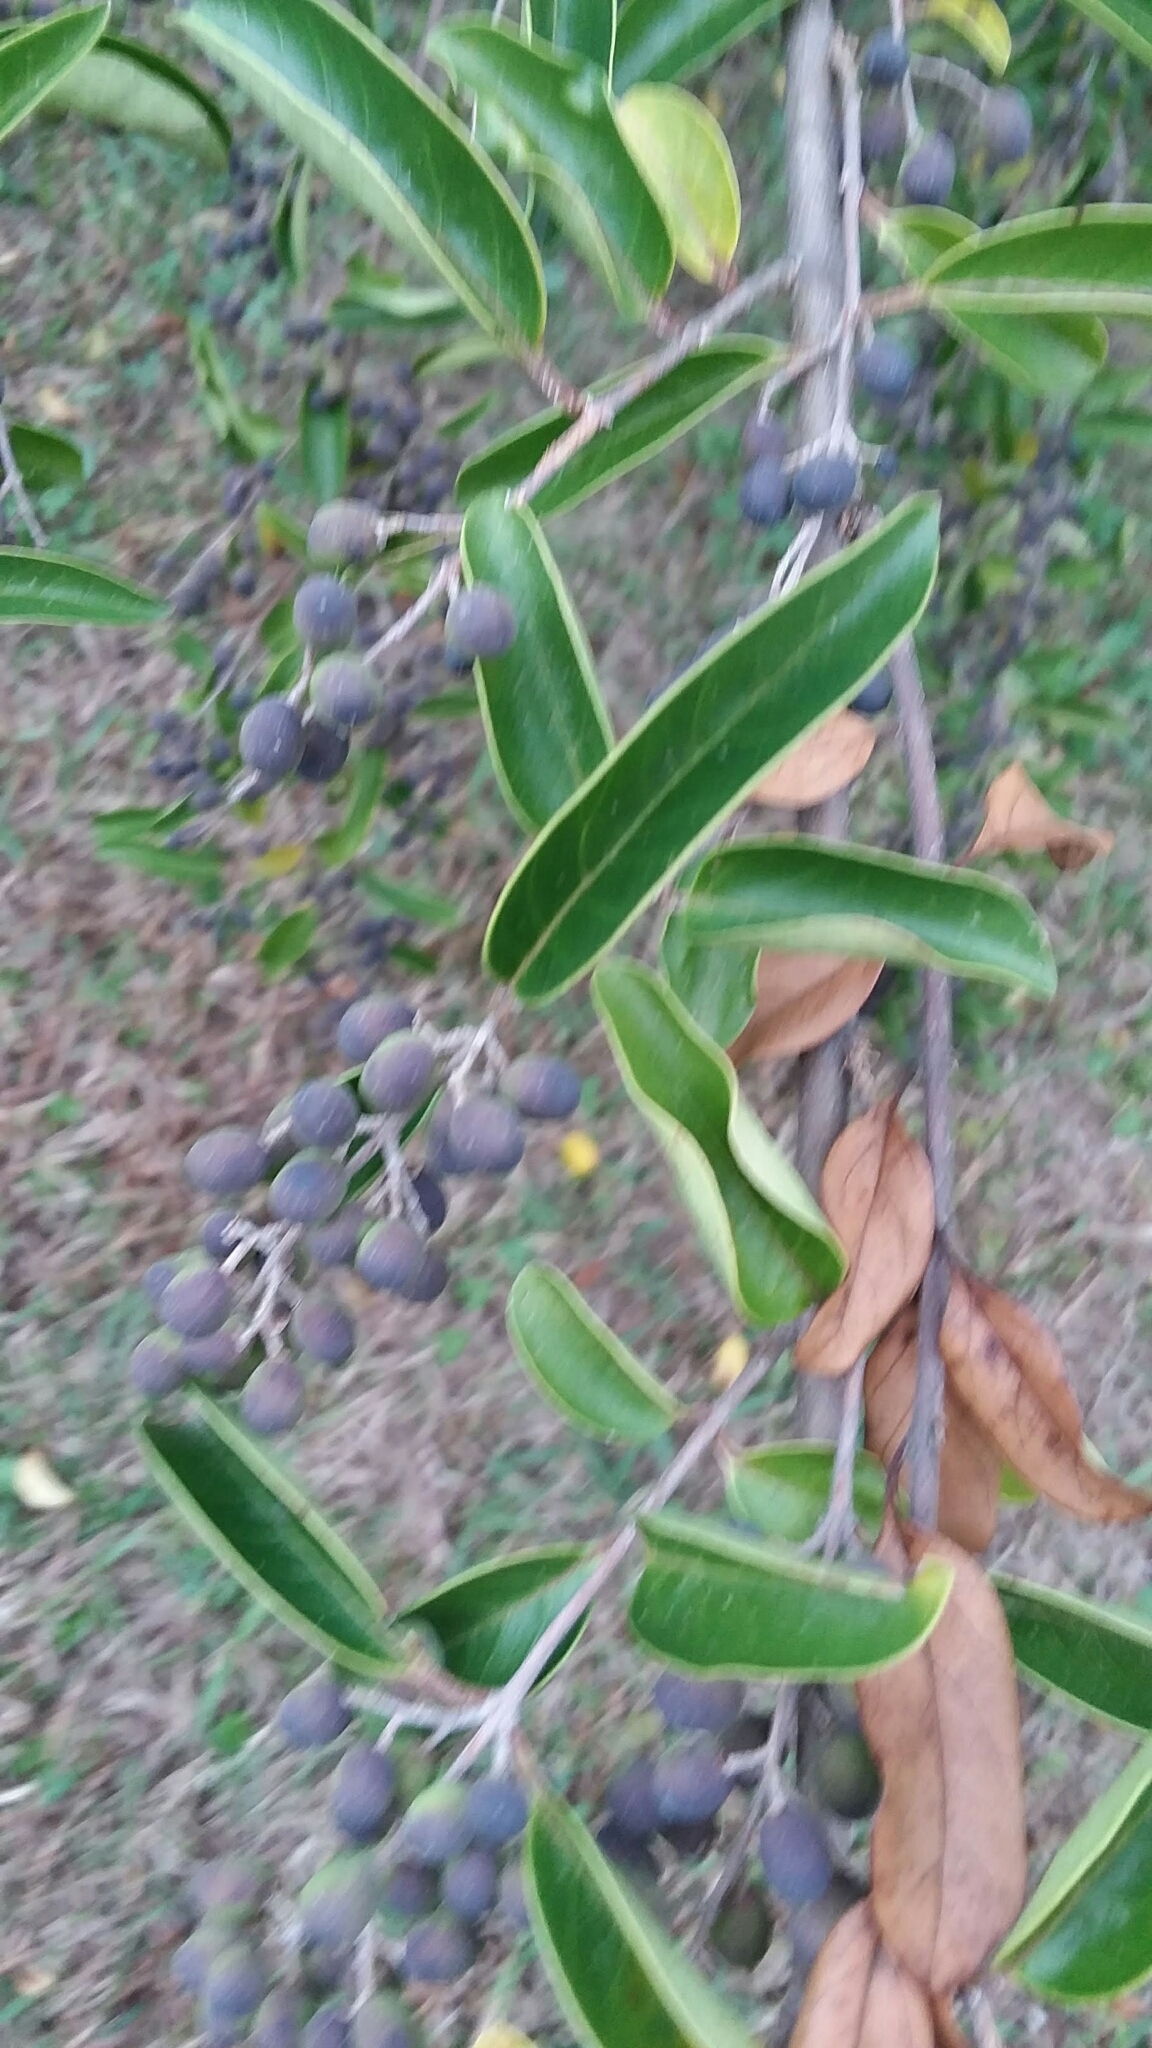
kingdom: Plantae
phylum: Tracheophyta
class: Magnoliopsida
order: Lamiales
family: Oleaceae
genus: Ligustrum
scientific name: Ligustrum sinense
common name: Chinese privet
